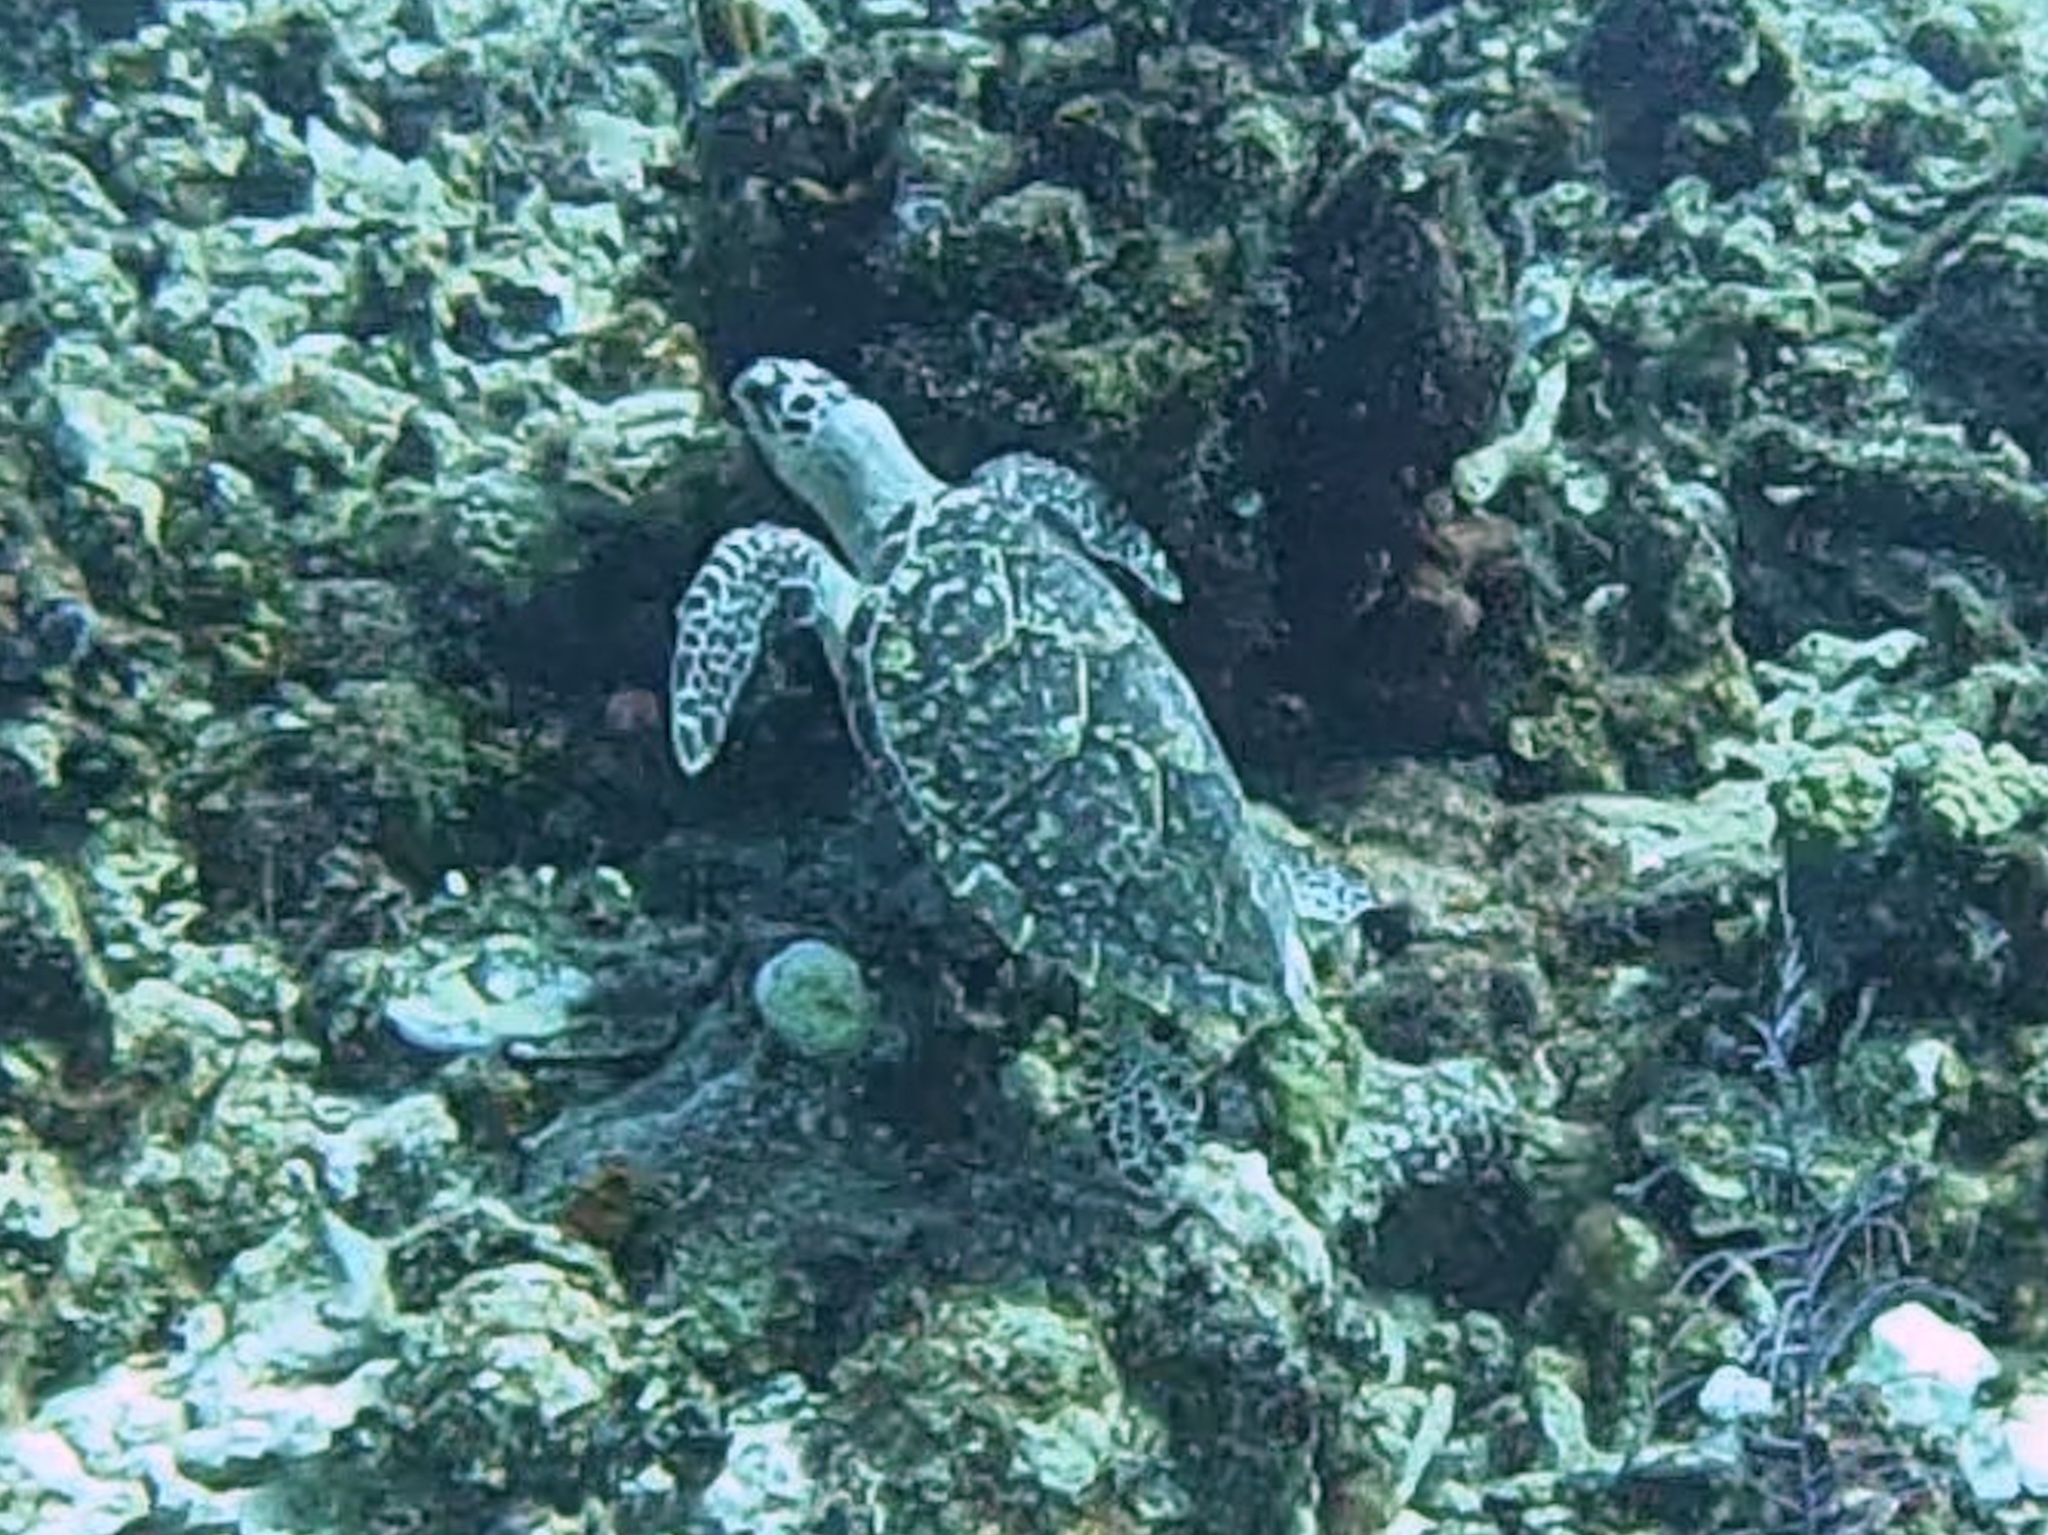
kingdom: Animalia
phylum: Chordata
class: Testudines
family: Cheloniidae
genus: Eretmochelys
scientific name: Eretmochelys imbricata
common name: Hawksbill turtle
